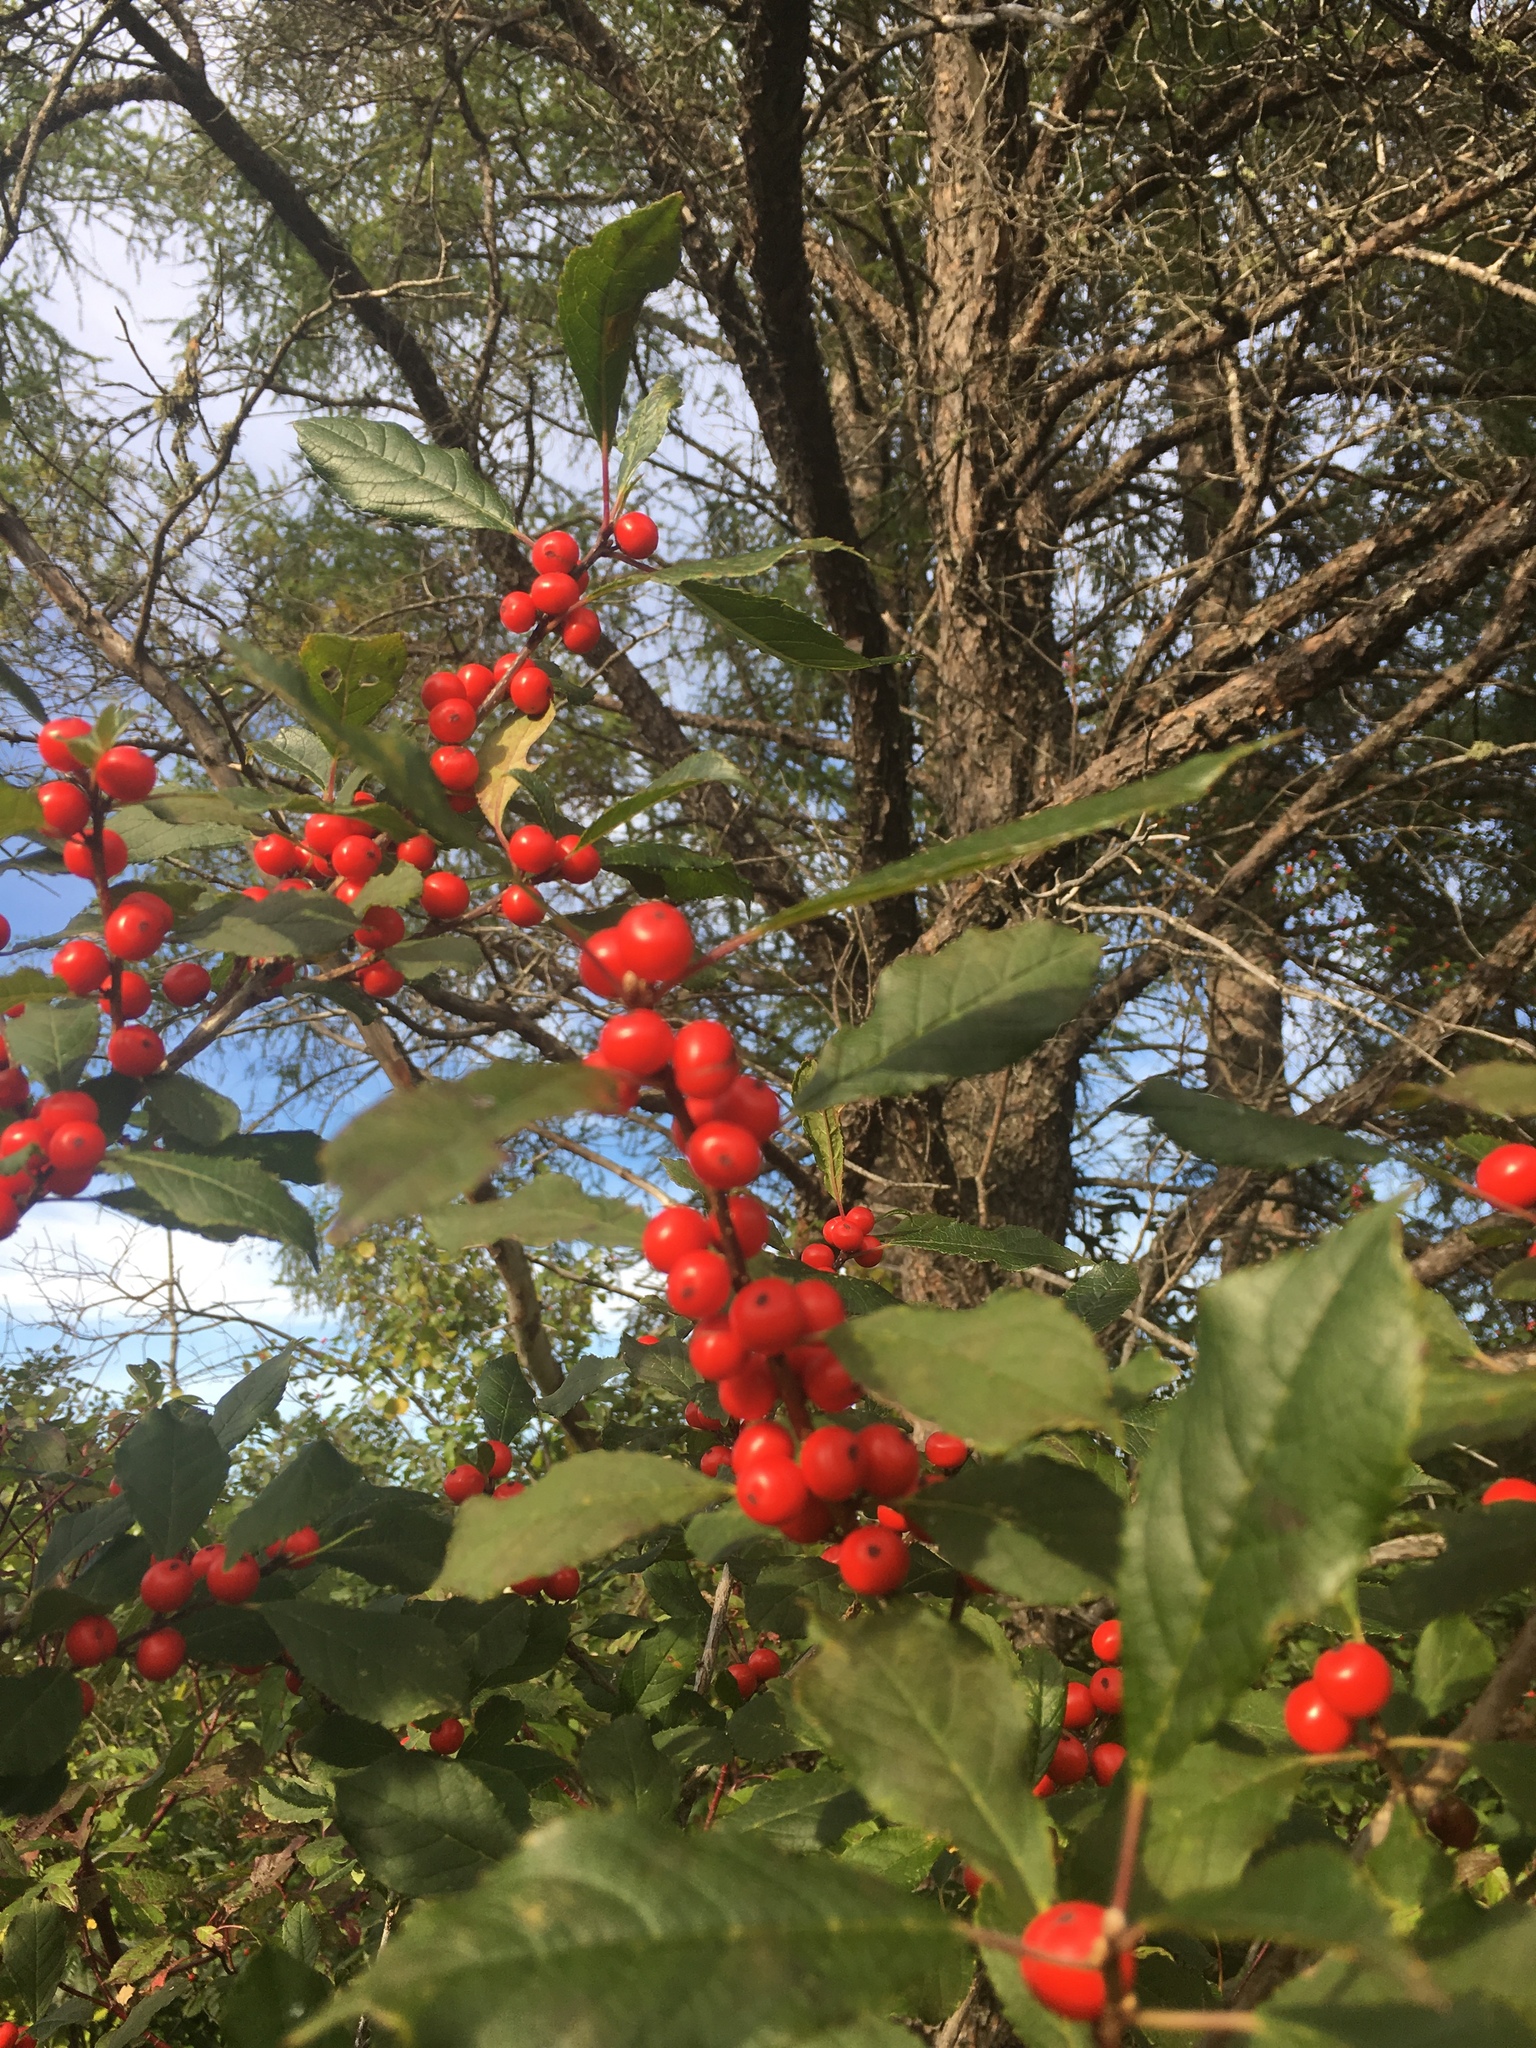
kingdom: Plantae
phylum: Tracheophyta
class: Magnoliopsida
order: Aquifoliales
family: Aquifoliaceae
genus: Ilex
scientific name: Ilex verticillata
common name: Virginia winterberry
